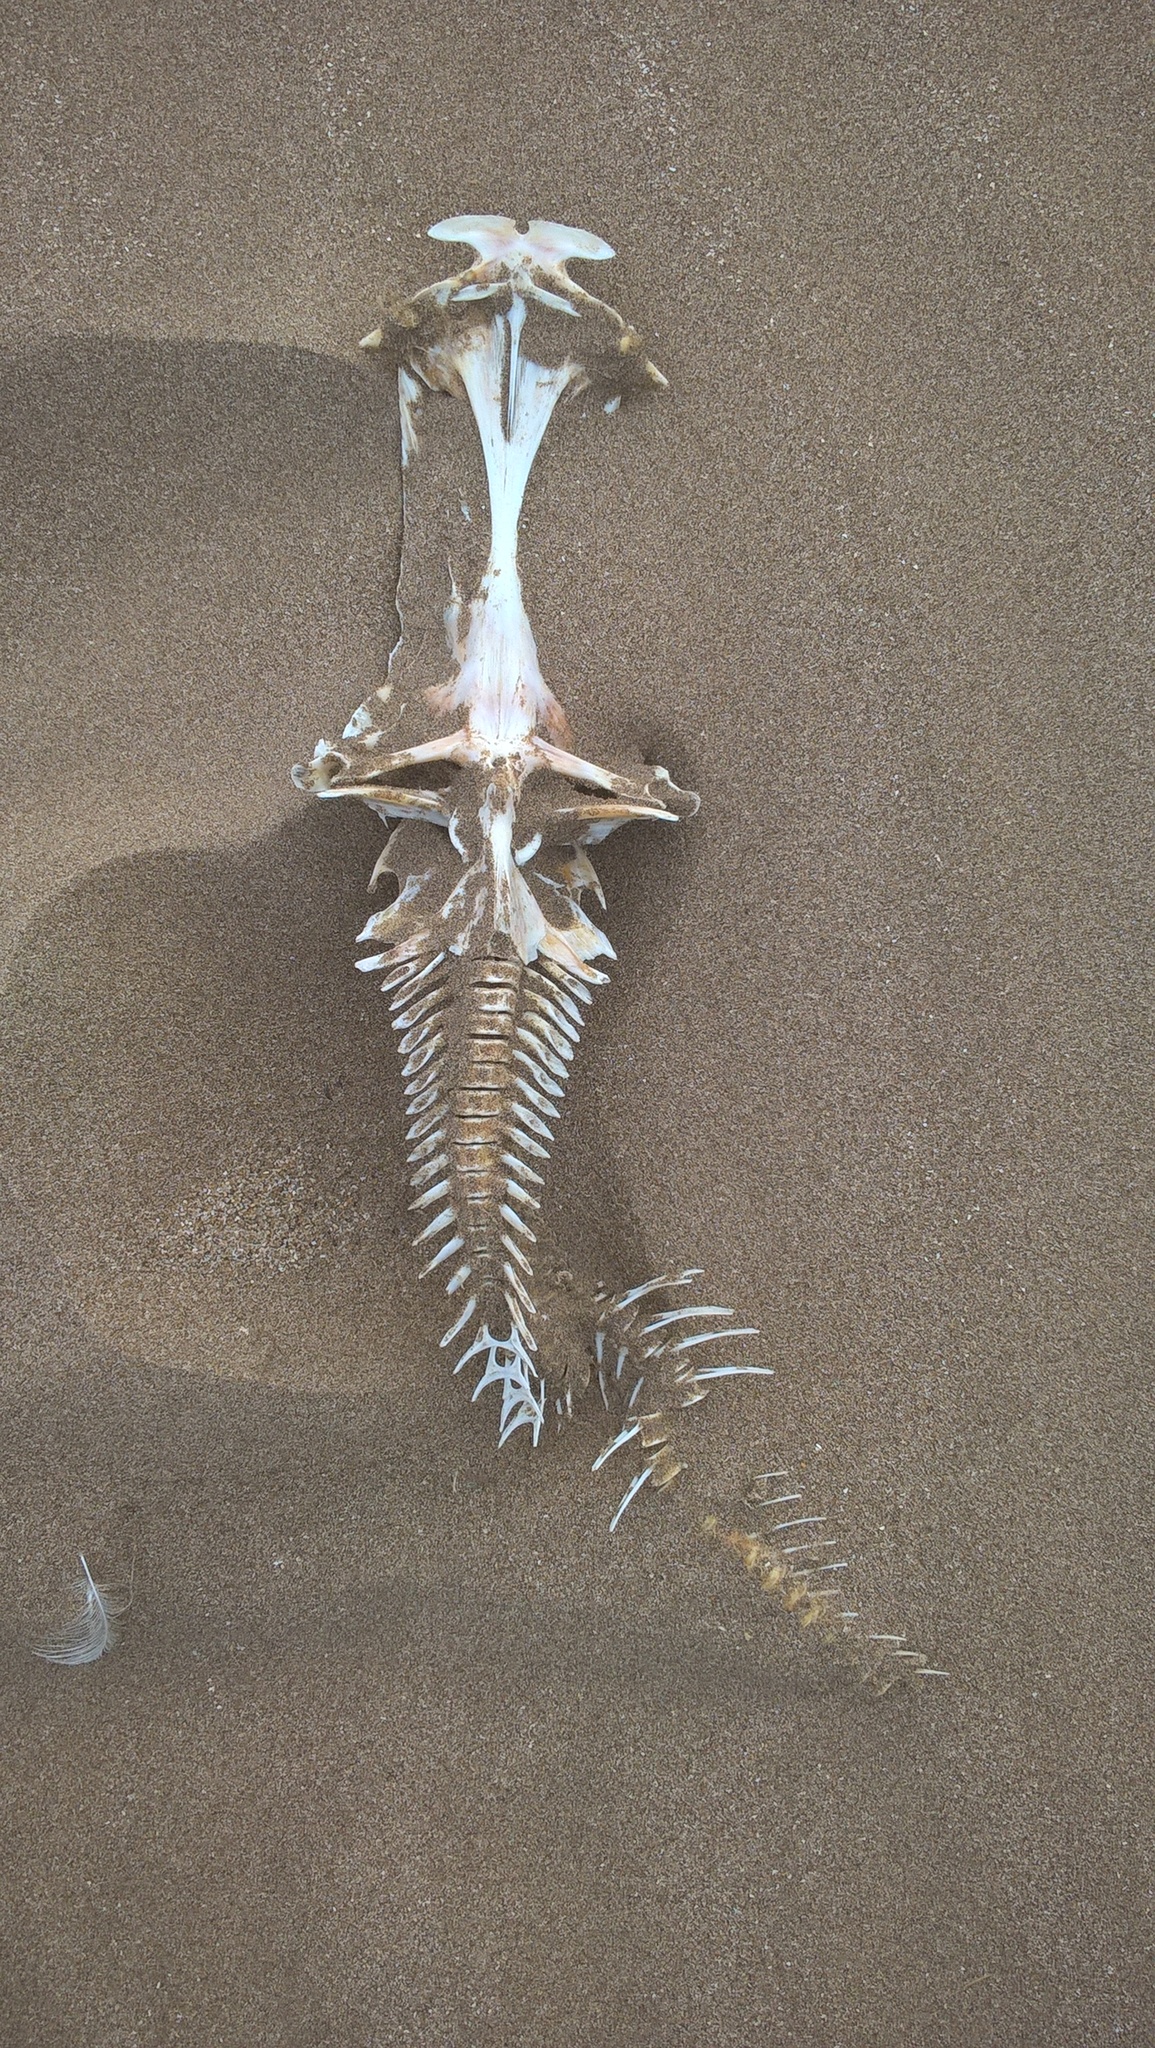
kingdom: Animalia
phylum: Chordata
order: Siluriformes
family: Ariidae
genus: Genidens
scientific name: Genidens barbus
